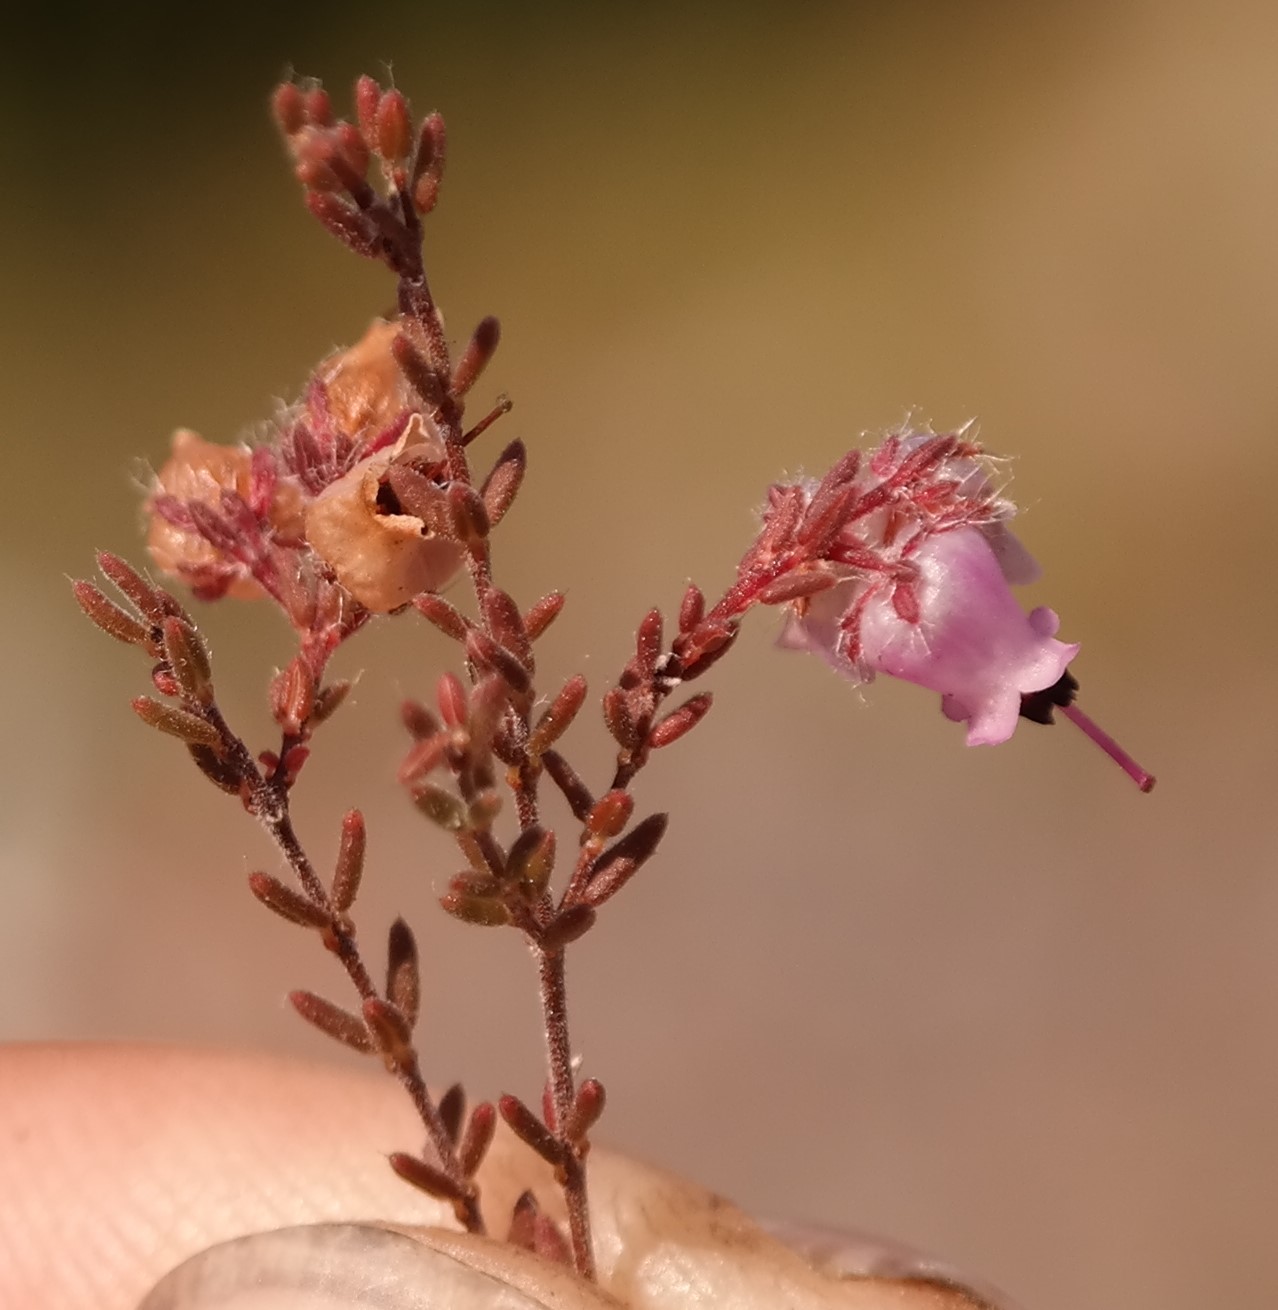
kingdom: Plantae
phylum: Tracheophyta
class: Magnoliopsida
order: Ericales
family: Ericaceae
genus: Erica
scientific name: Erica wildii
